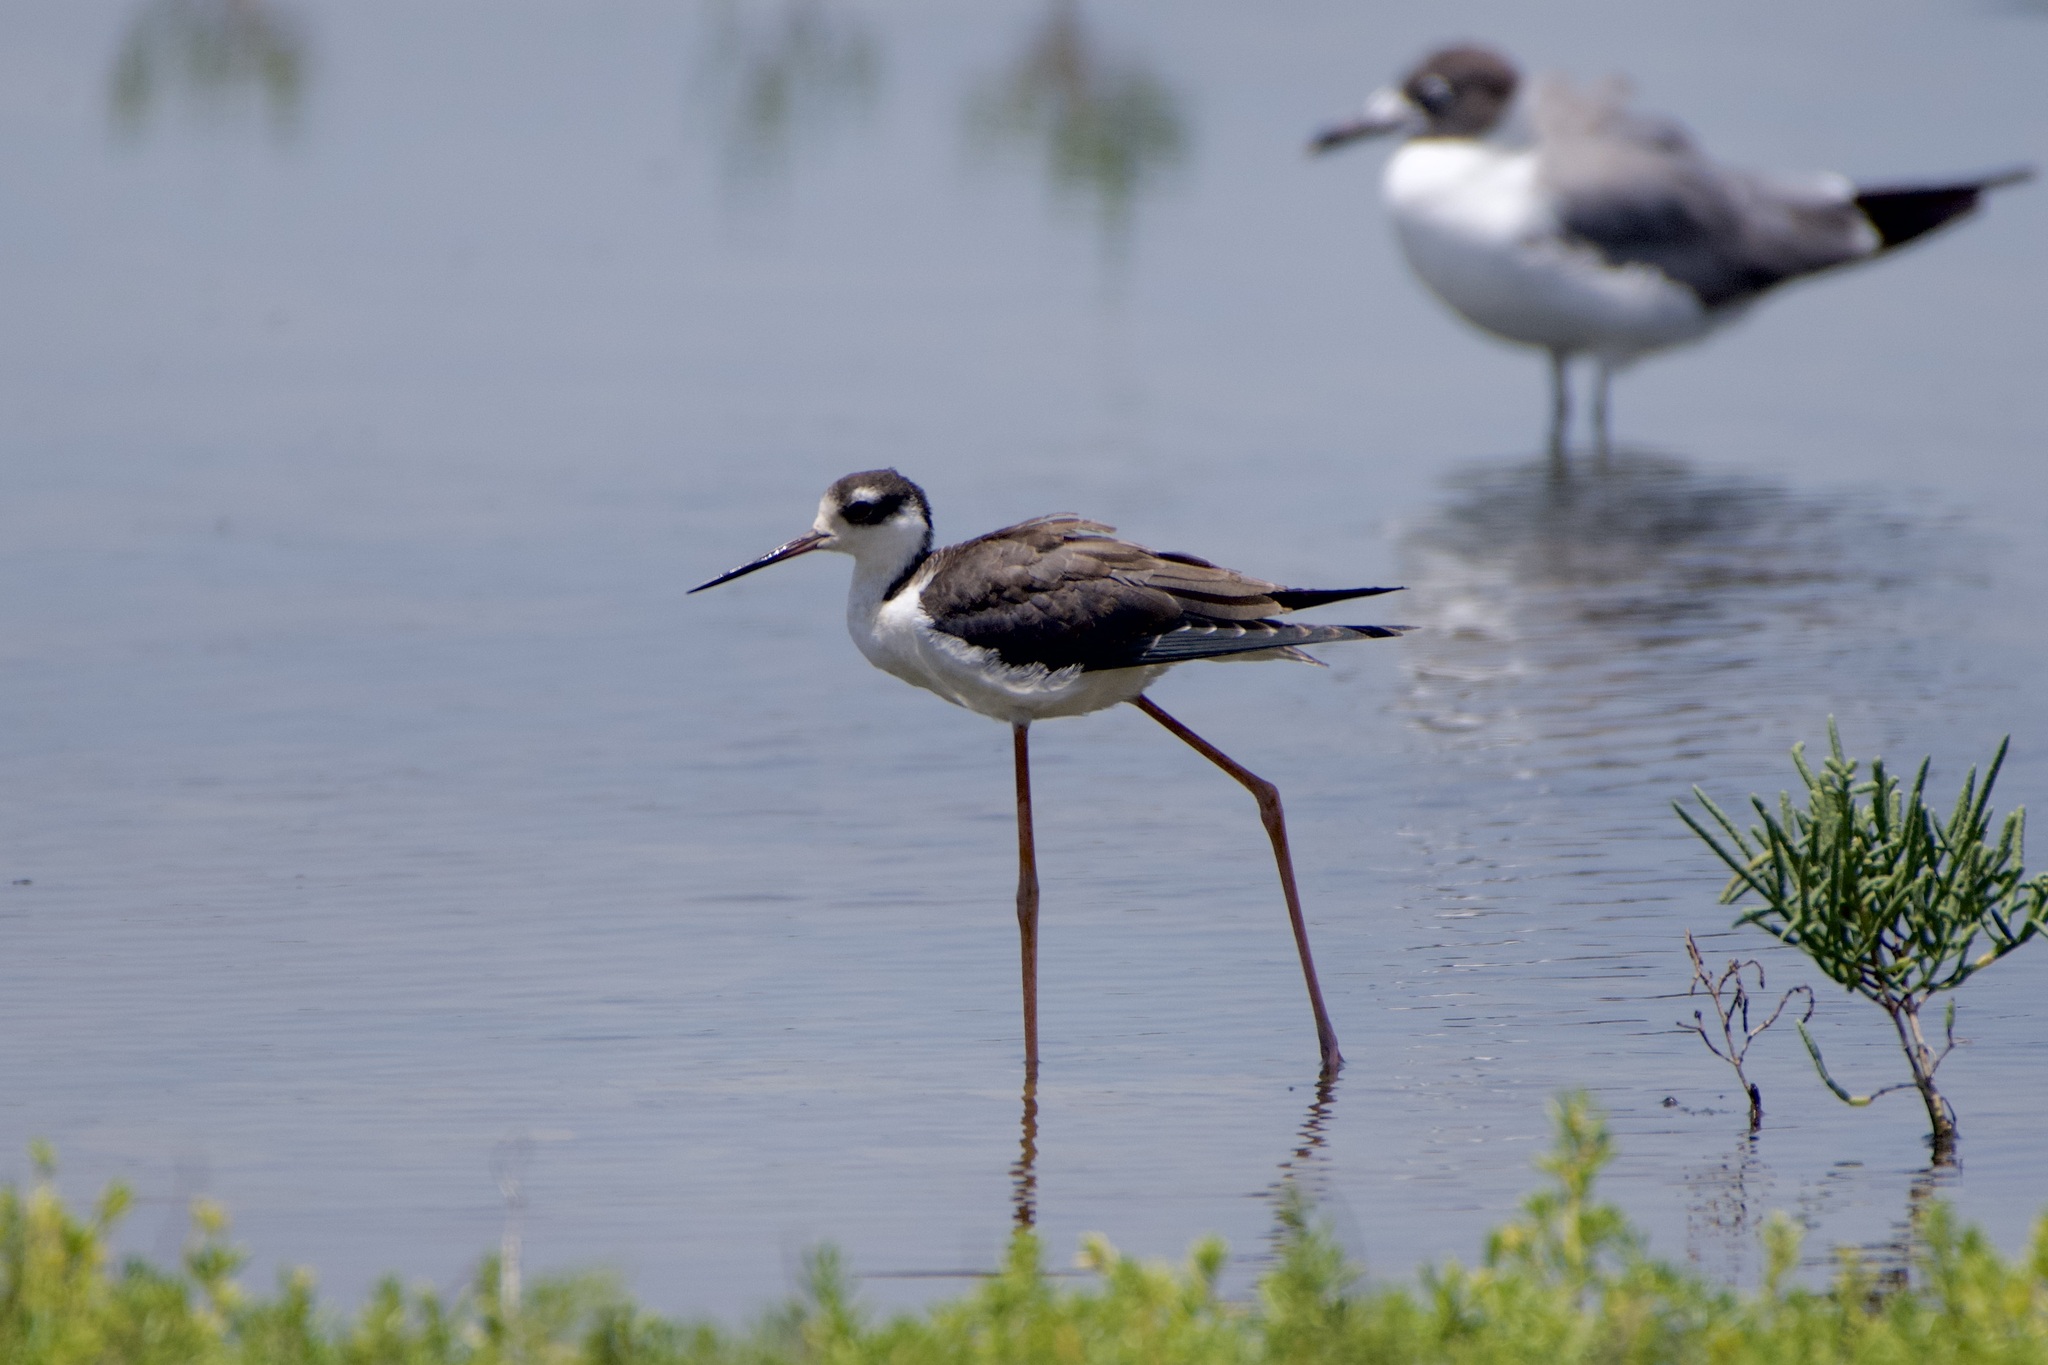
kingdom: Animalia
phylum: Chordata
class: Aves
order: Charadriiformes
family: Recurvirostridae
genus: Himantopus
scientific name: Himantopus mexicanus
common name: Black-necked stilt
